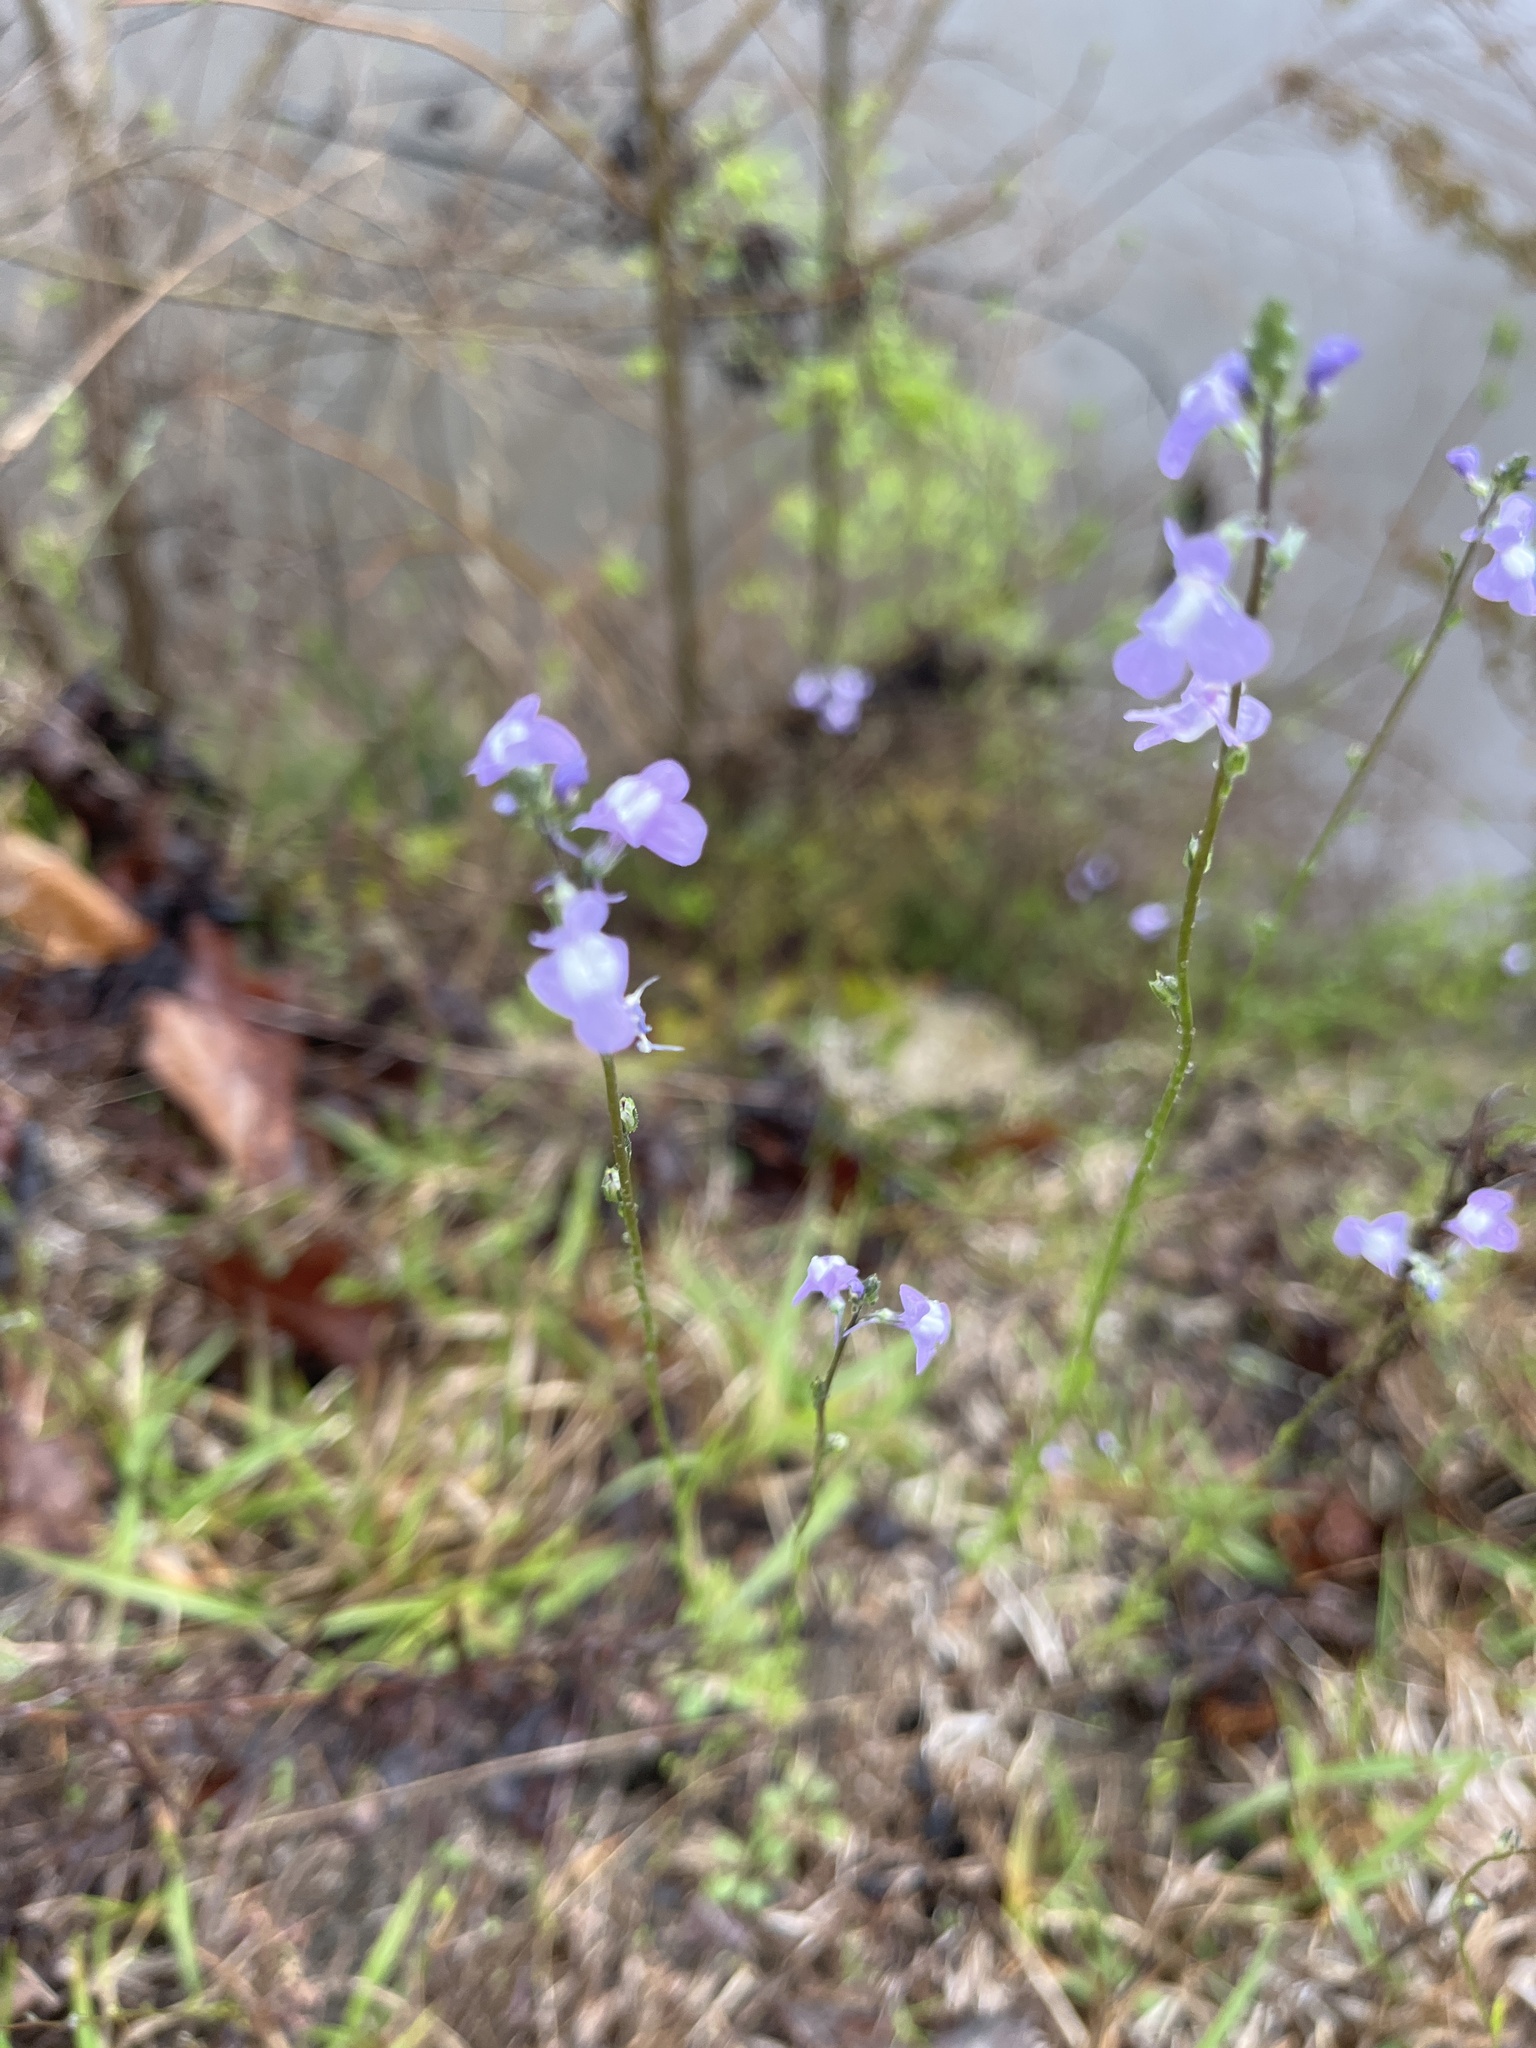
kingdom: Plantae
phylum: Tracheophyta
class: Magnoliopsida
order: Lamiales
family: Plantaginaceae
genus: Nuttallanthus
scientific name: Nuttallanthus canadensis
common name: Blue toadflax
